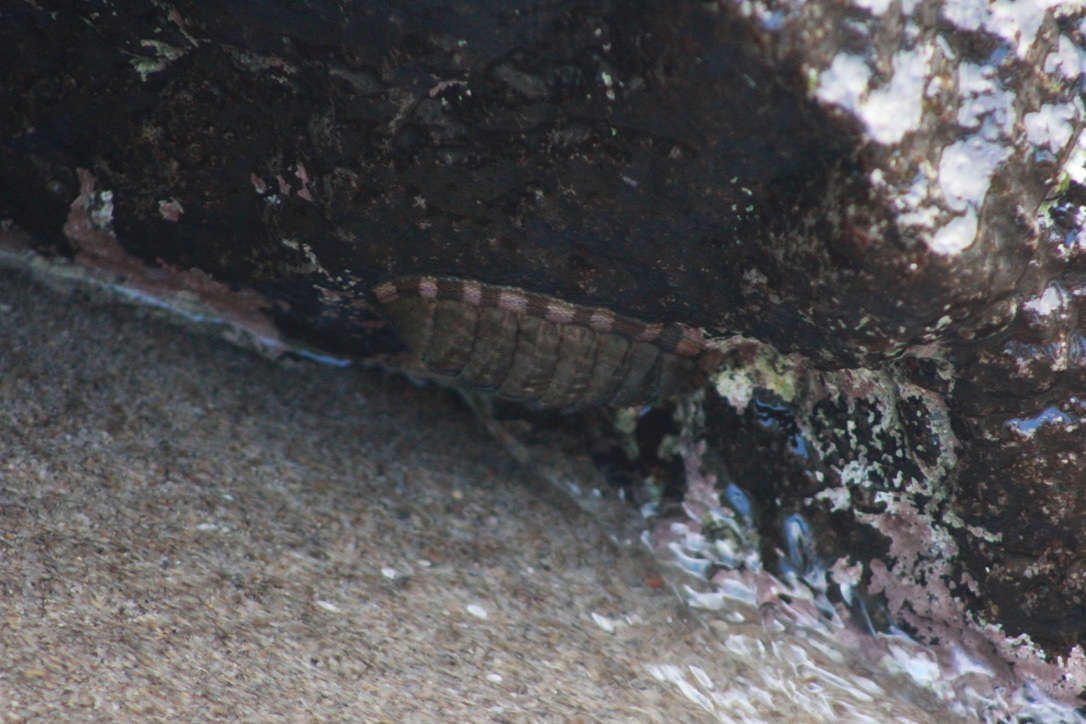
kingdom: Animalia
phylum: Mollusca
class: Polyplacophora
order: Chitonida
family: Chitonidae
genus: Chiton
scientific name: Chiton marmoratus
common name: Marbled chiton
